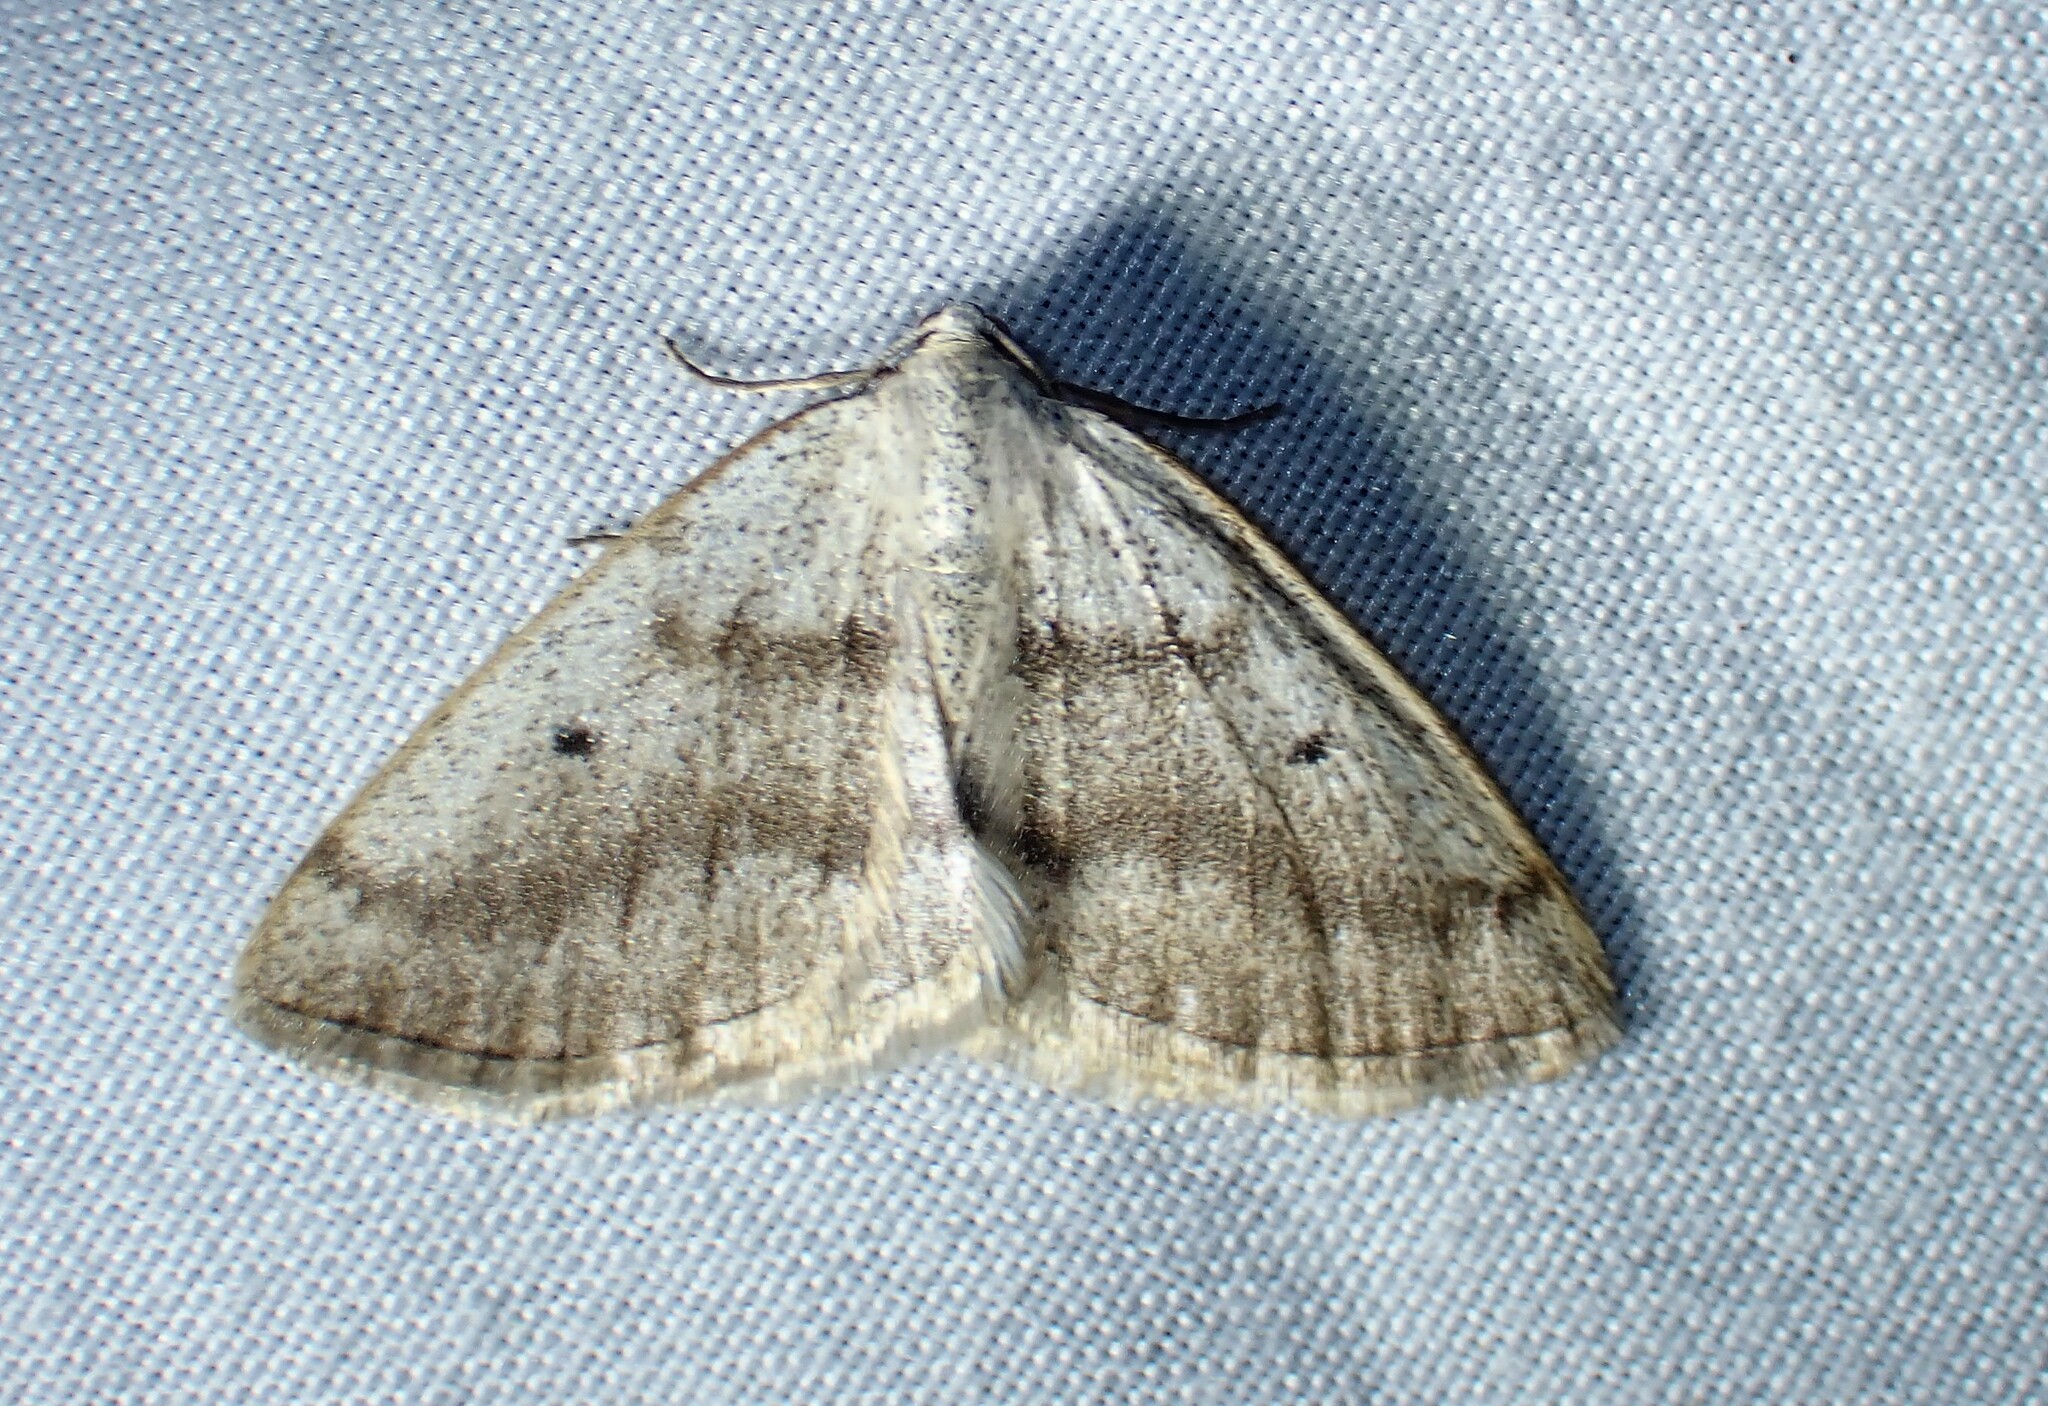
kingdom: Animalia
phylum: Arthropoda
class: Insecta
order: Lepidoptera
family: Geometridae
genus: Lomographa
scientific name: Lomographa glomeraria
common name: Gray spring moth
